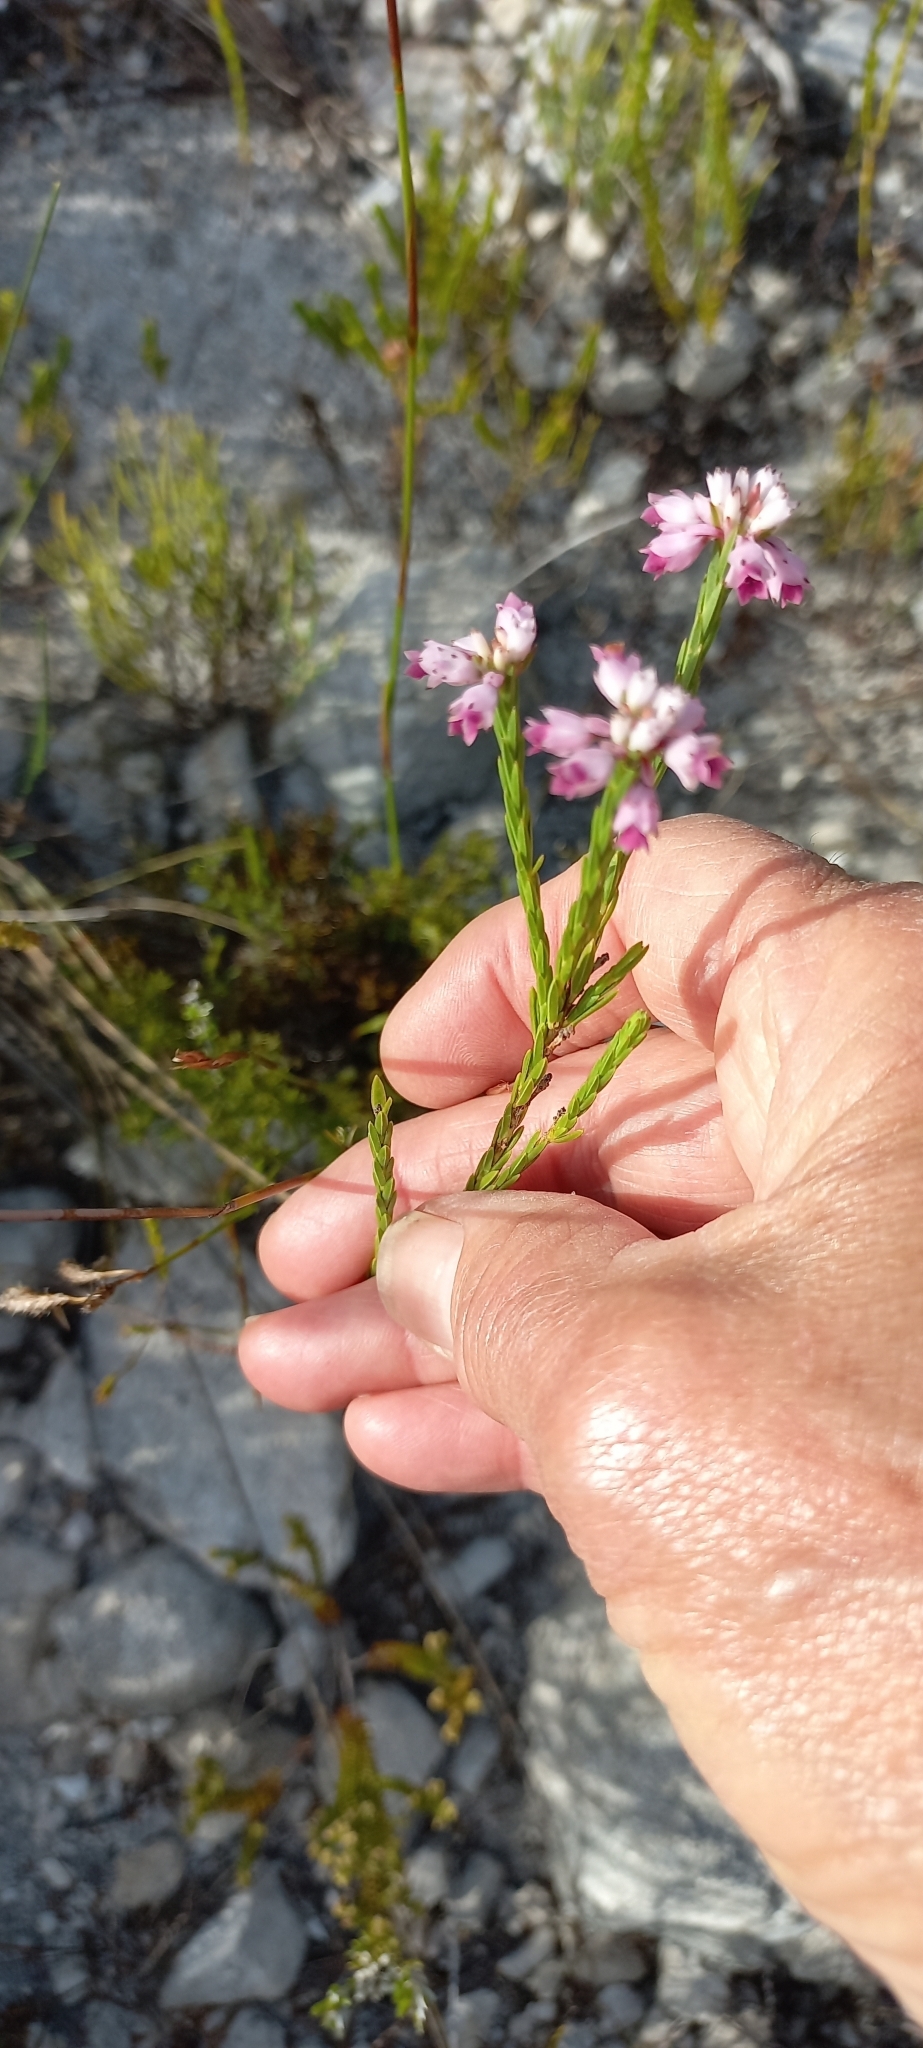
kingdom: Plantae
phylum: Tracheophyta
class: Magnoliopsida
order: Ericales
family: Ericaceae
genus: Erica
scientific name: Erica corifolia
